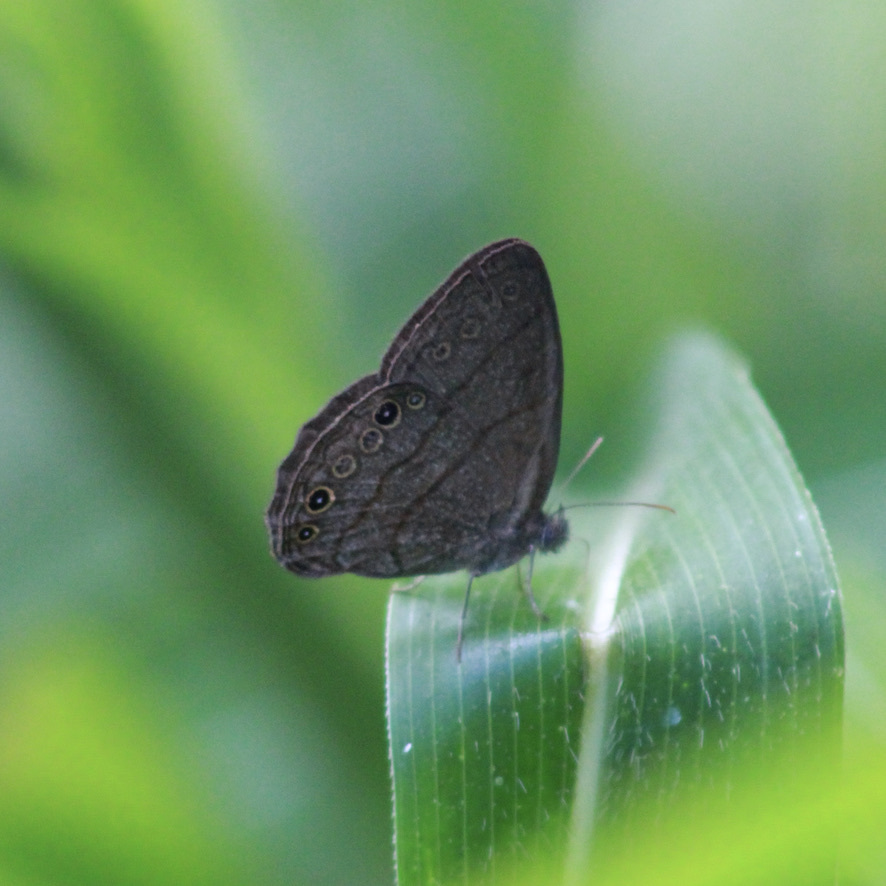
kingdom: Animalia
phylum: Arthropoda
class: Insecta
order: Lepidoptera
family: Nymphalidae
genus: Hermeuptychia
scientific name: Hermeuptychia canthe
